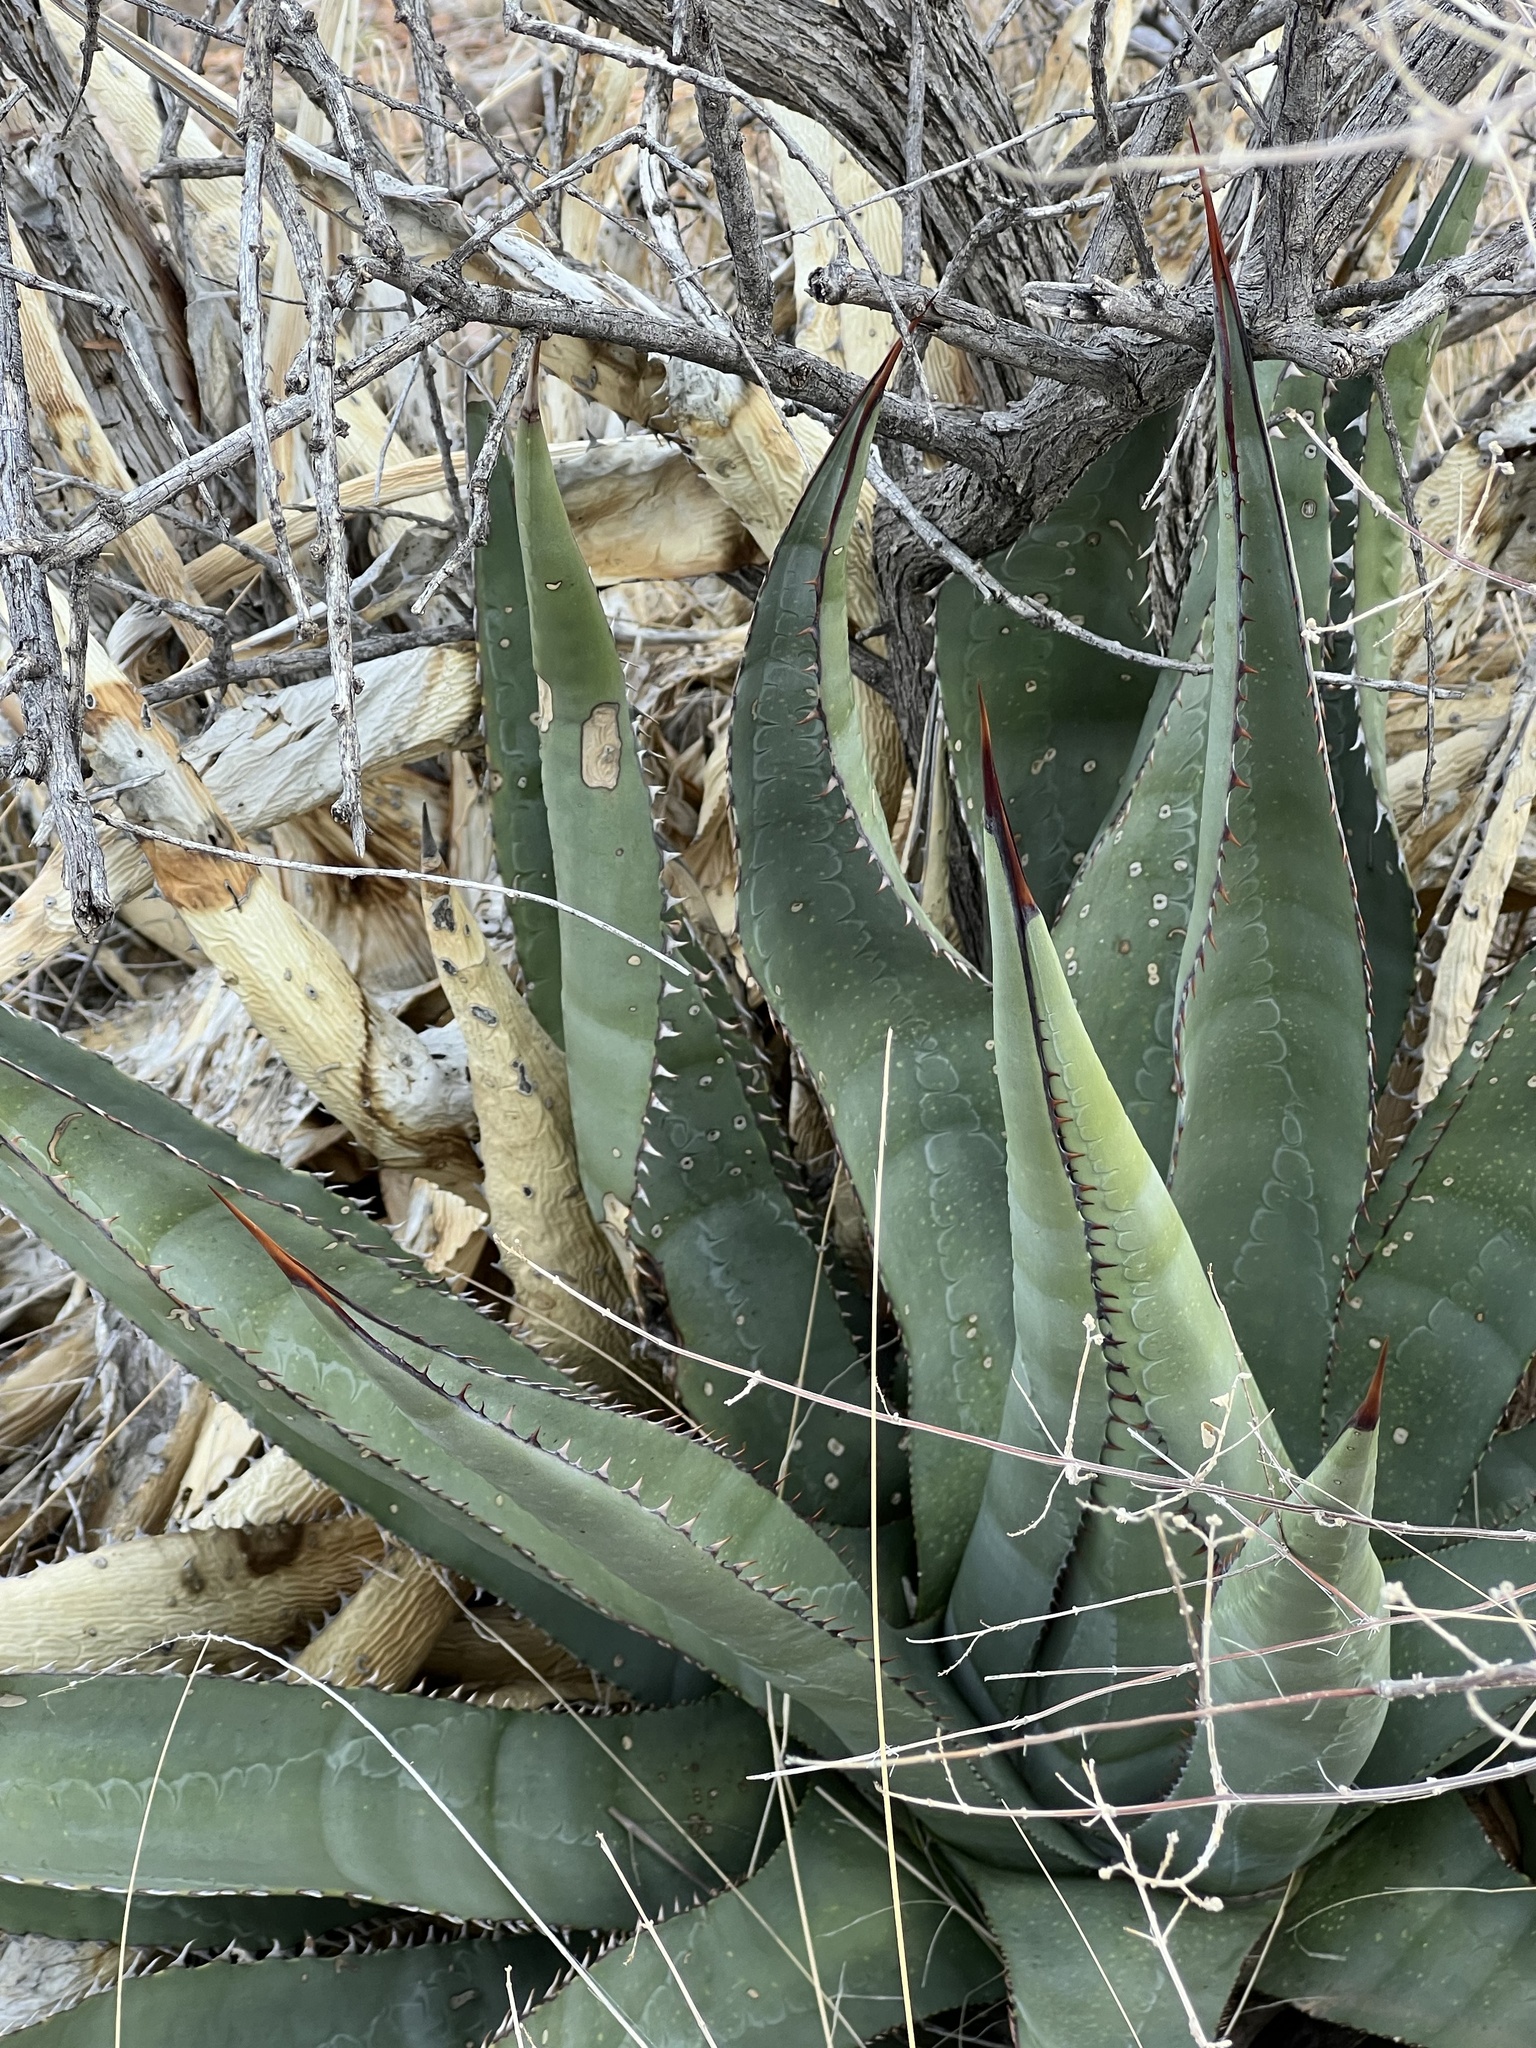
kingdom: Plantae
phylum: Tracheophyta
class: Liliopsida
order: Asparagales
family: Asparagaceae
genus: Agave
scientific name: Agave palmeri
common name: Palmer agave
